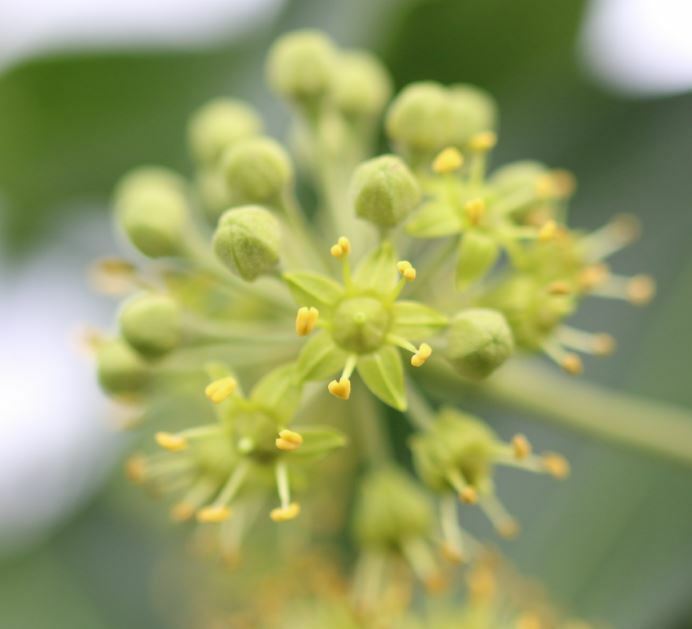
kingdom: Plantae
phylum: Tracheophyta
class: Magnoliopsida
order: Apiales
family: Araliaceae
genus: Hedera
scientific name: Hedera helix
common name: Ivy
